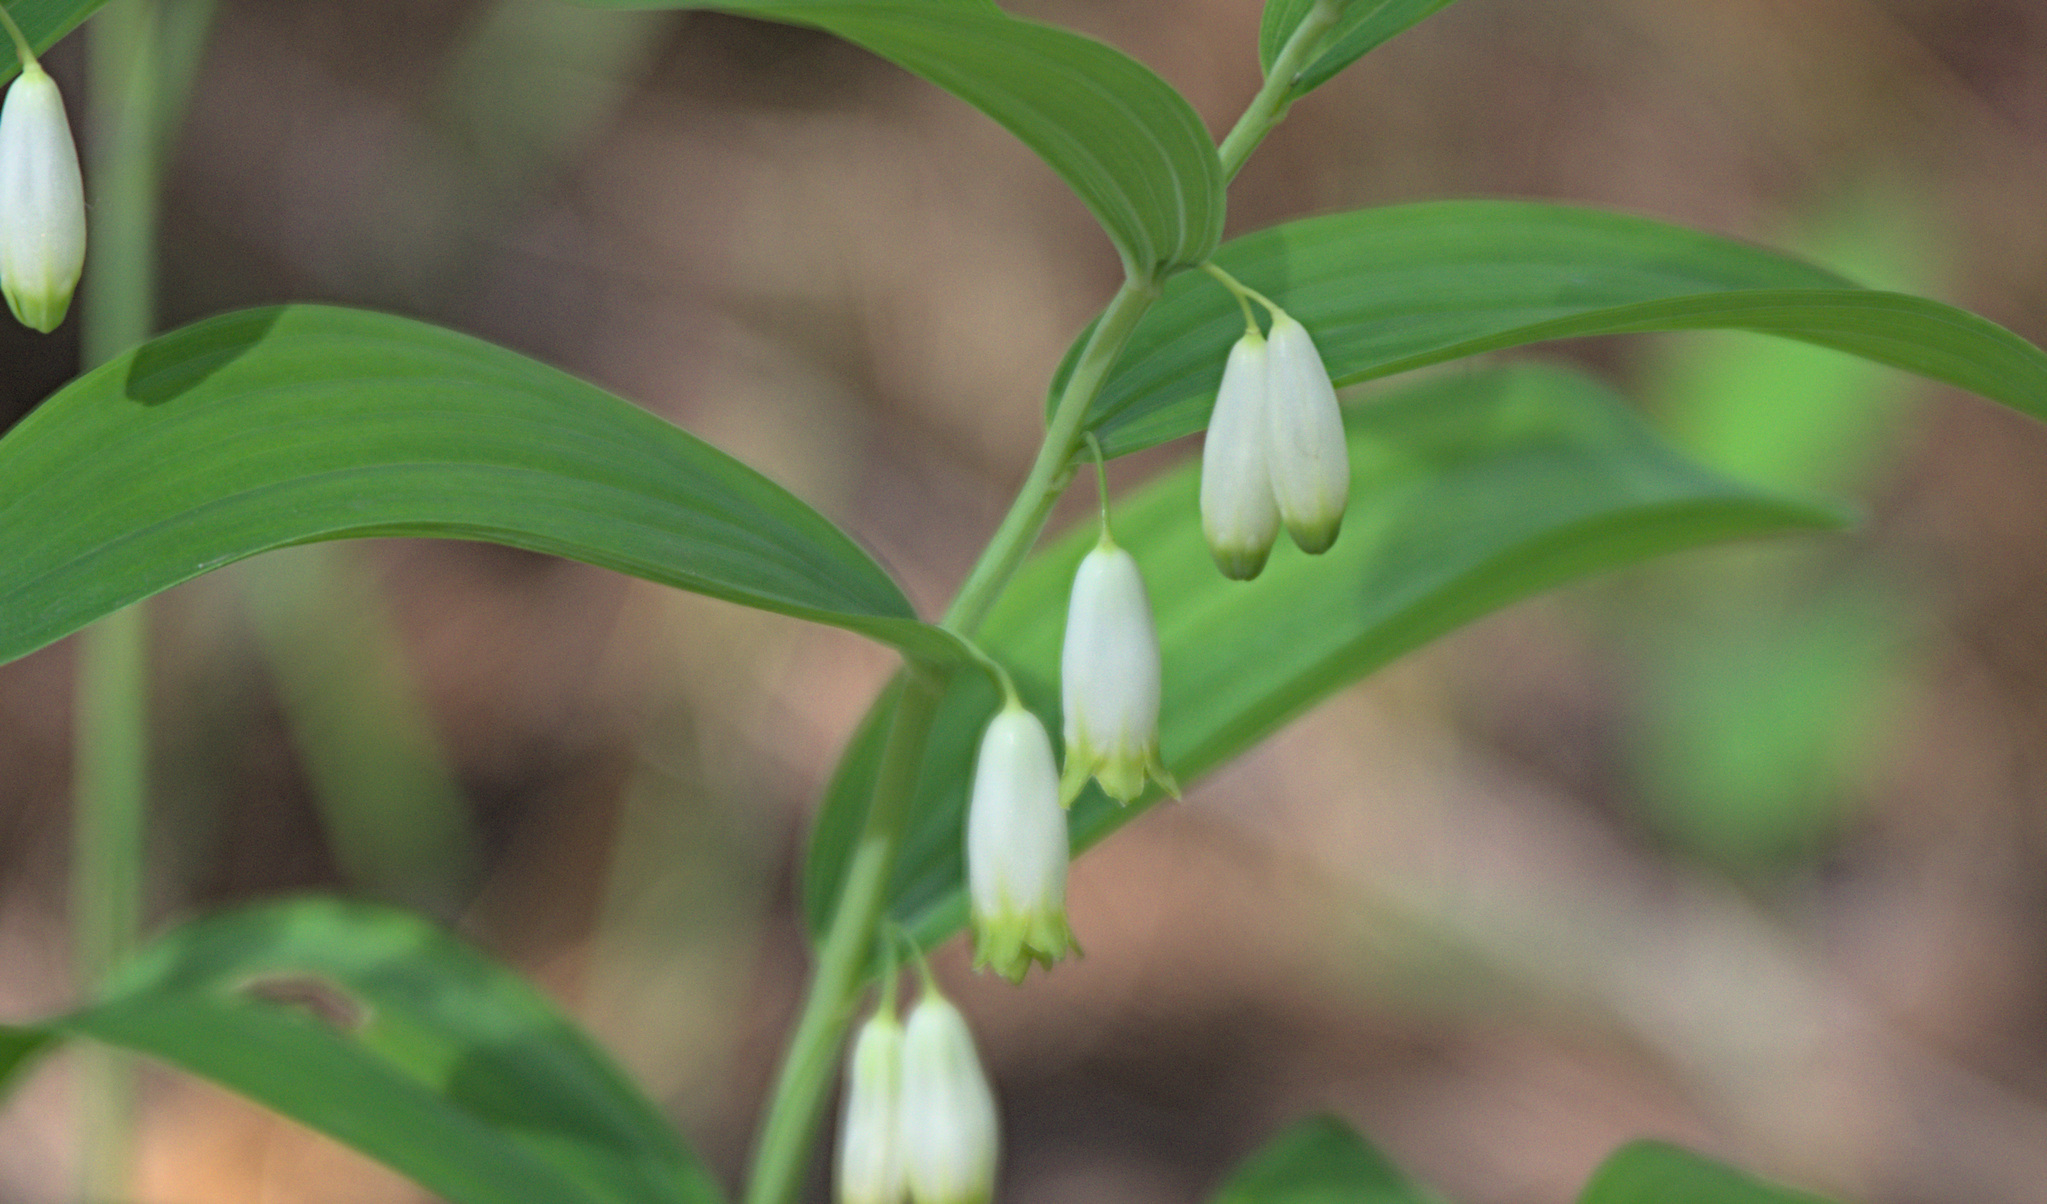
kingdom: Plantae
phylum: Tracheophyta
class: Liliopsida
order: Asparagales
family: Asparagaceae
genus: Polygonatum
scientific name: Polygonatum odoratum
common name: Angular solomon's-seal
